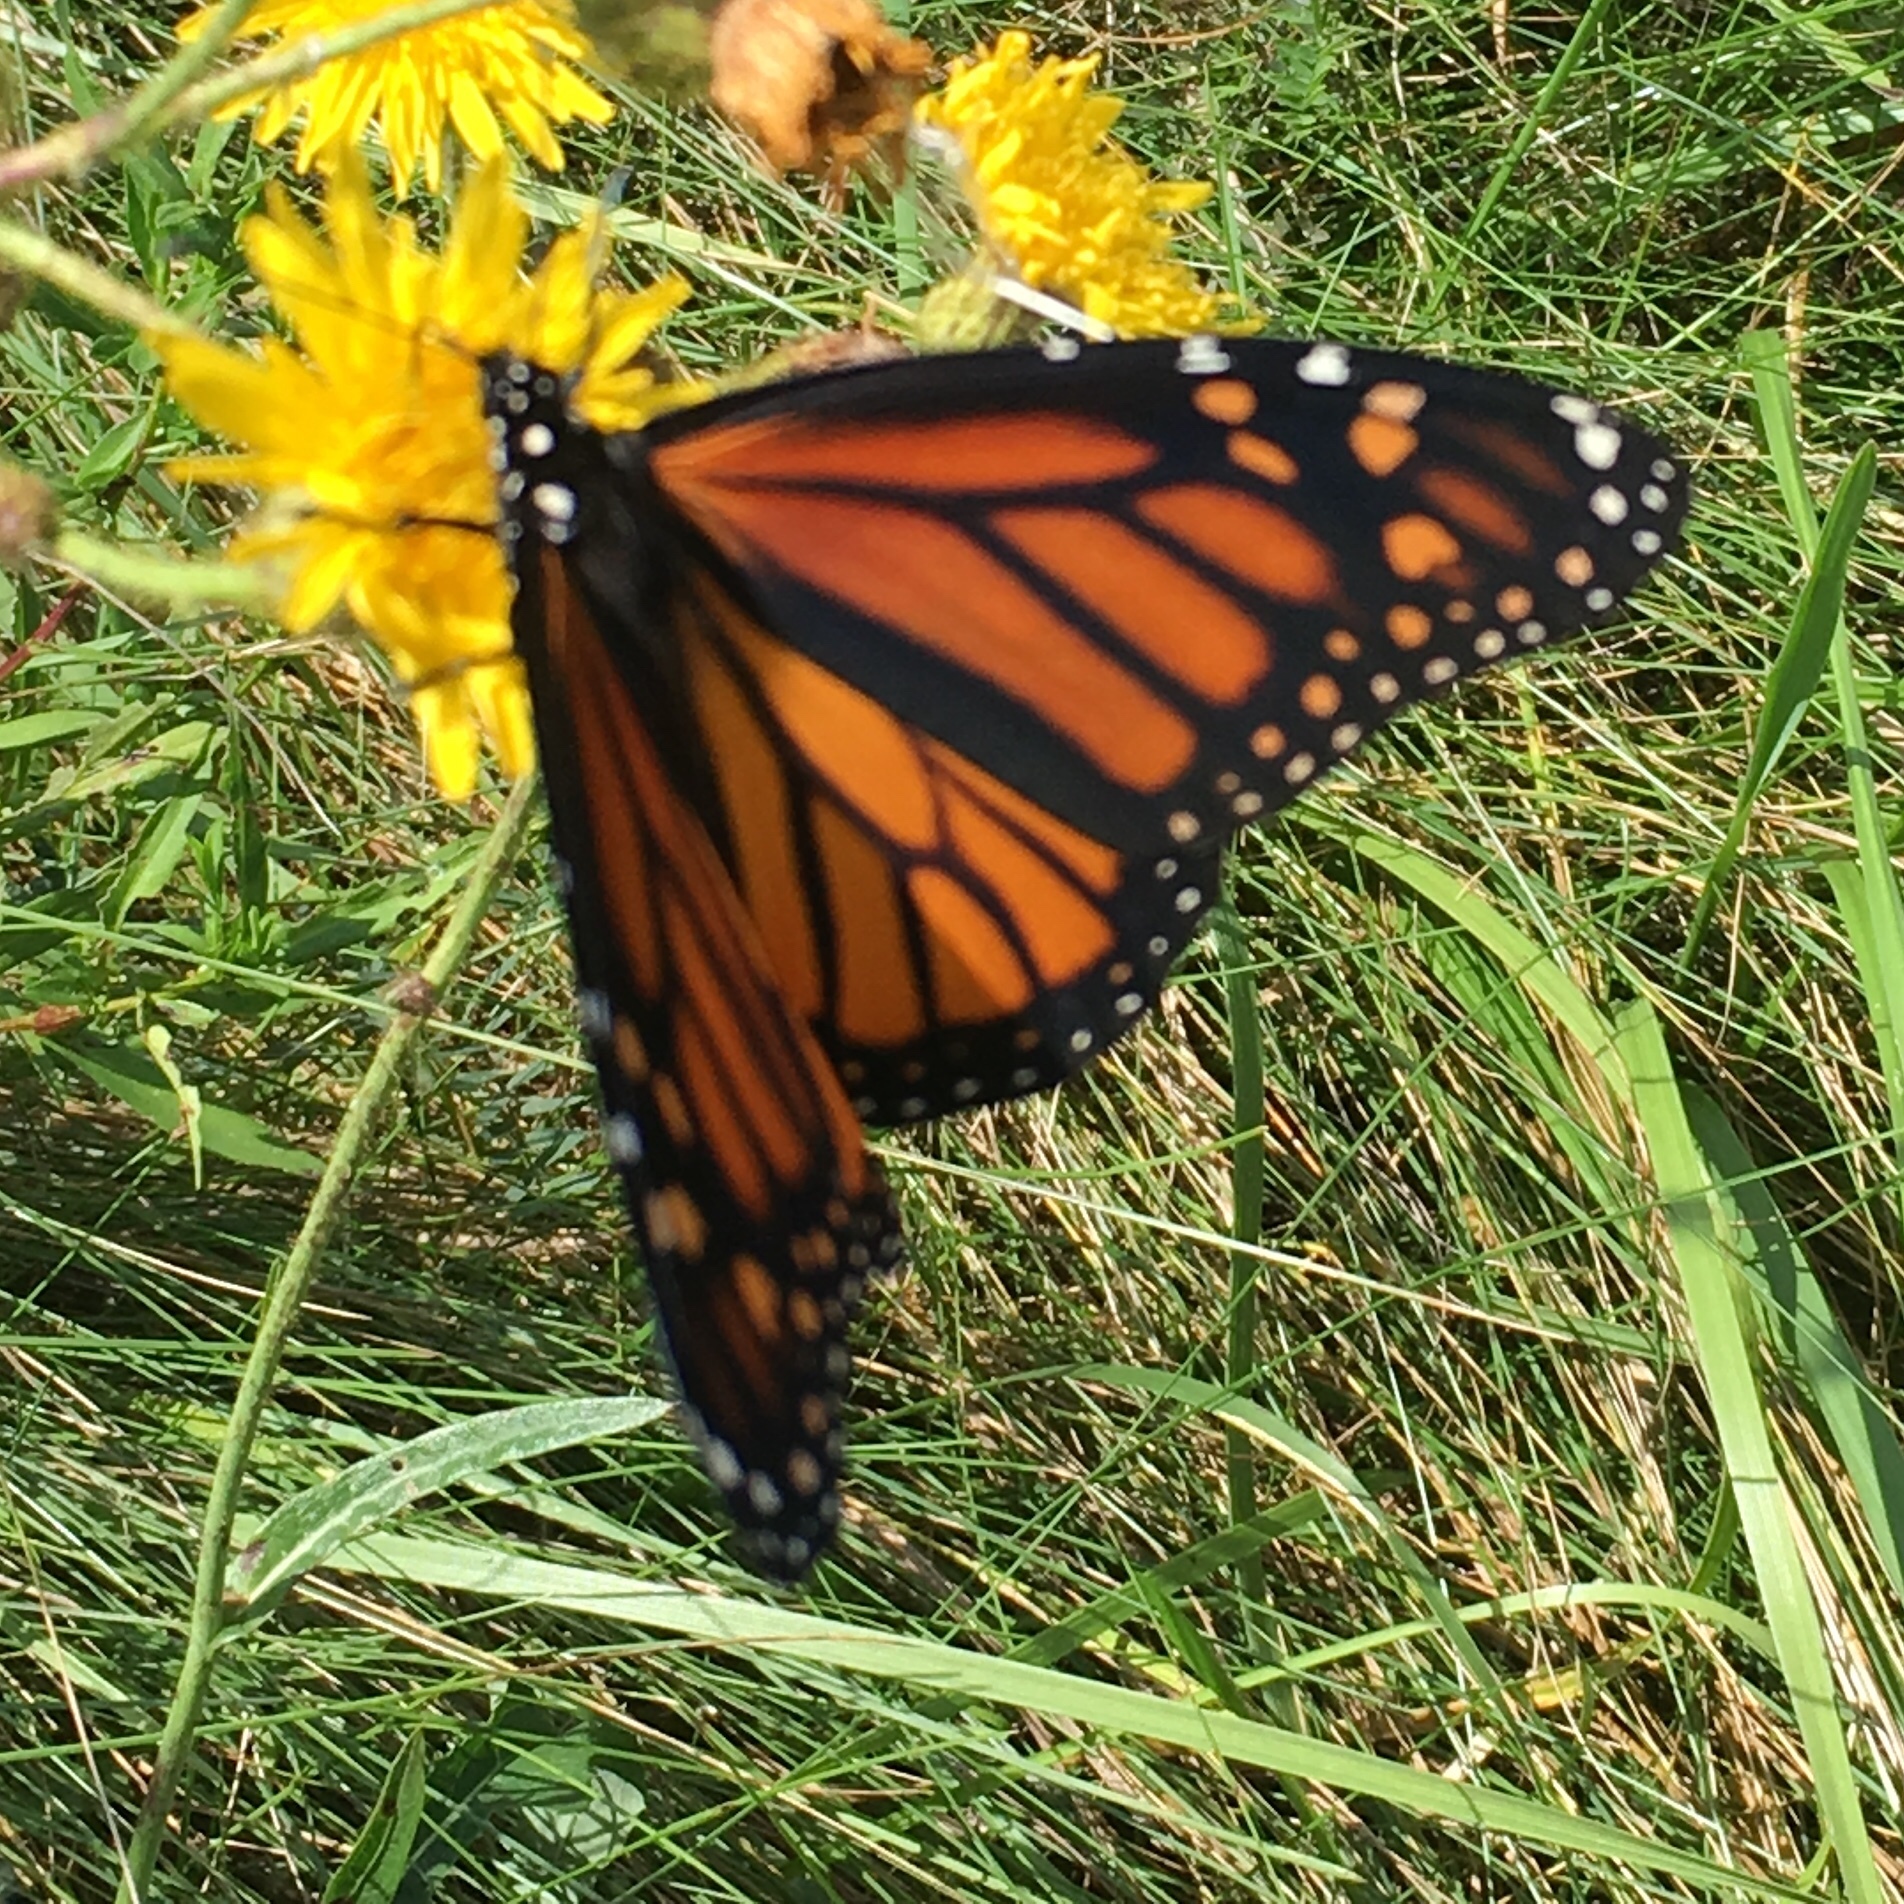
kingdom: Animalia
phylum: Arthropoda
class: Insecta
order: Lepidoptera
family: Nymphalidae
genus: Danaus
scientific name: Danaus plexippus
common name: Monarch
